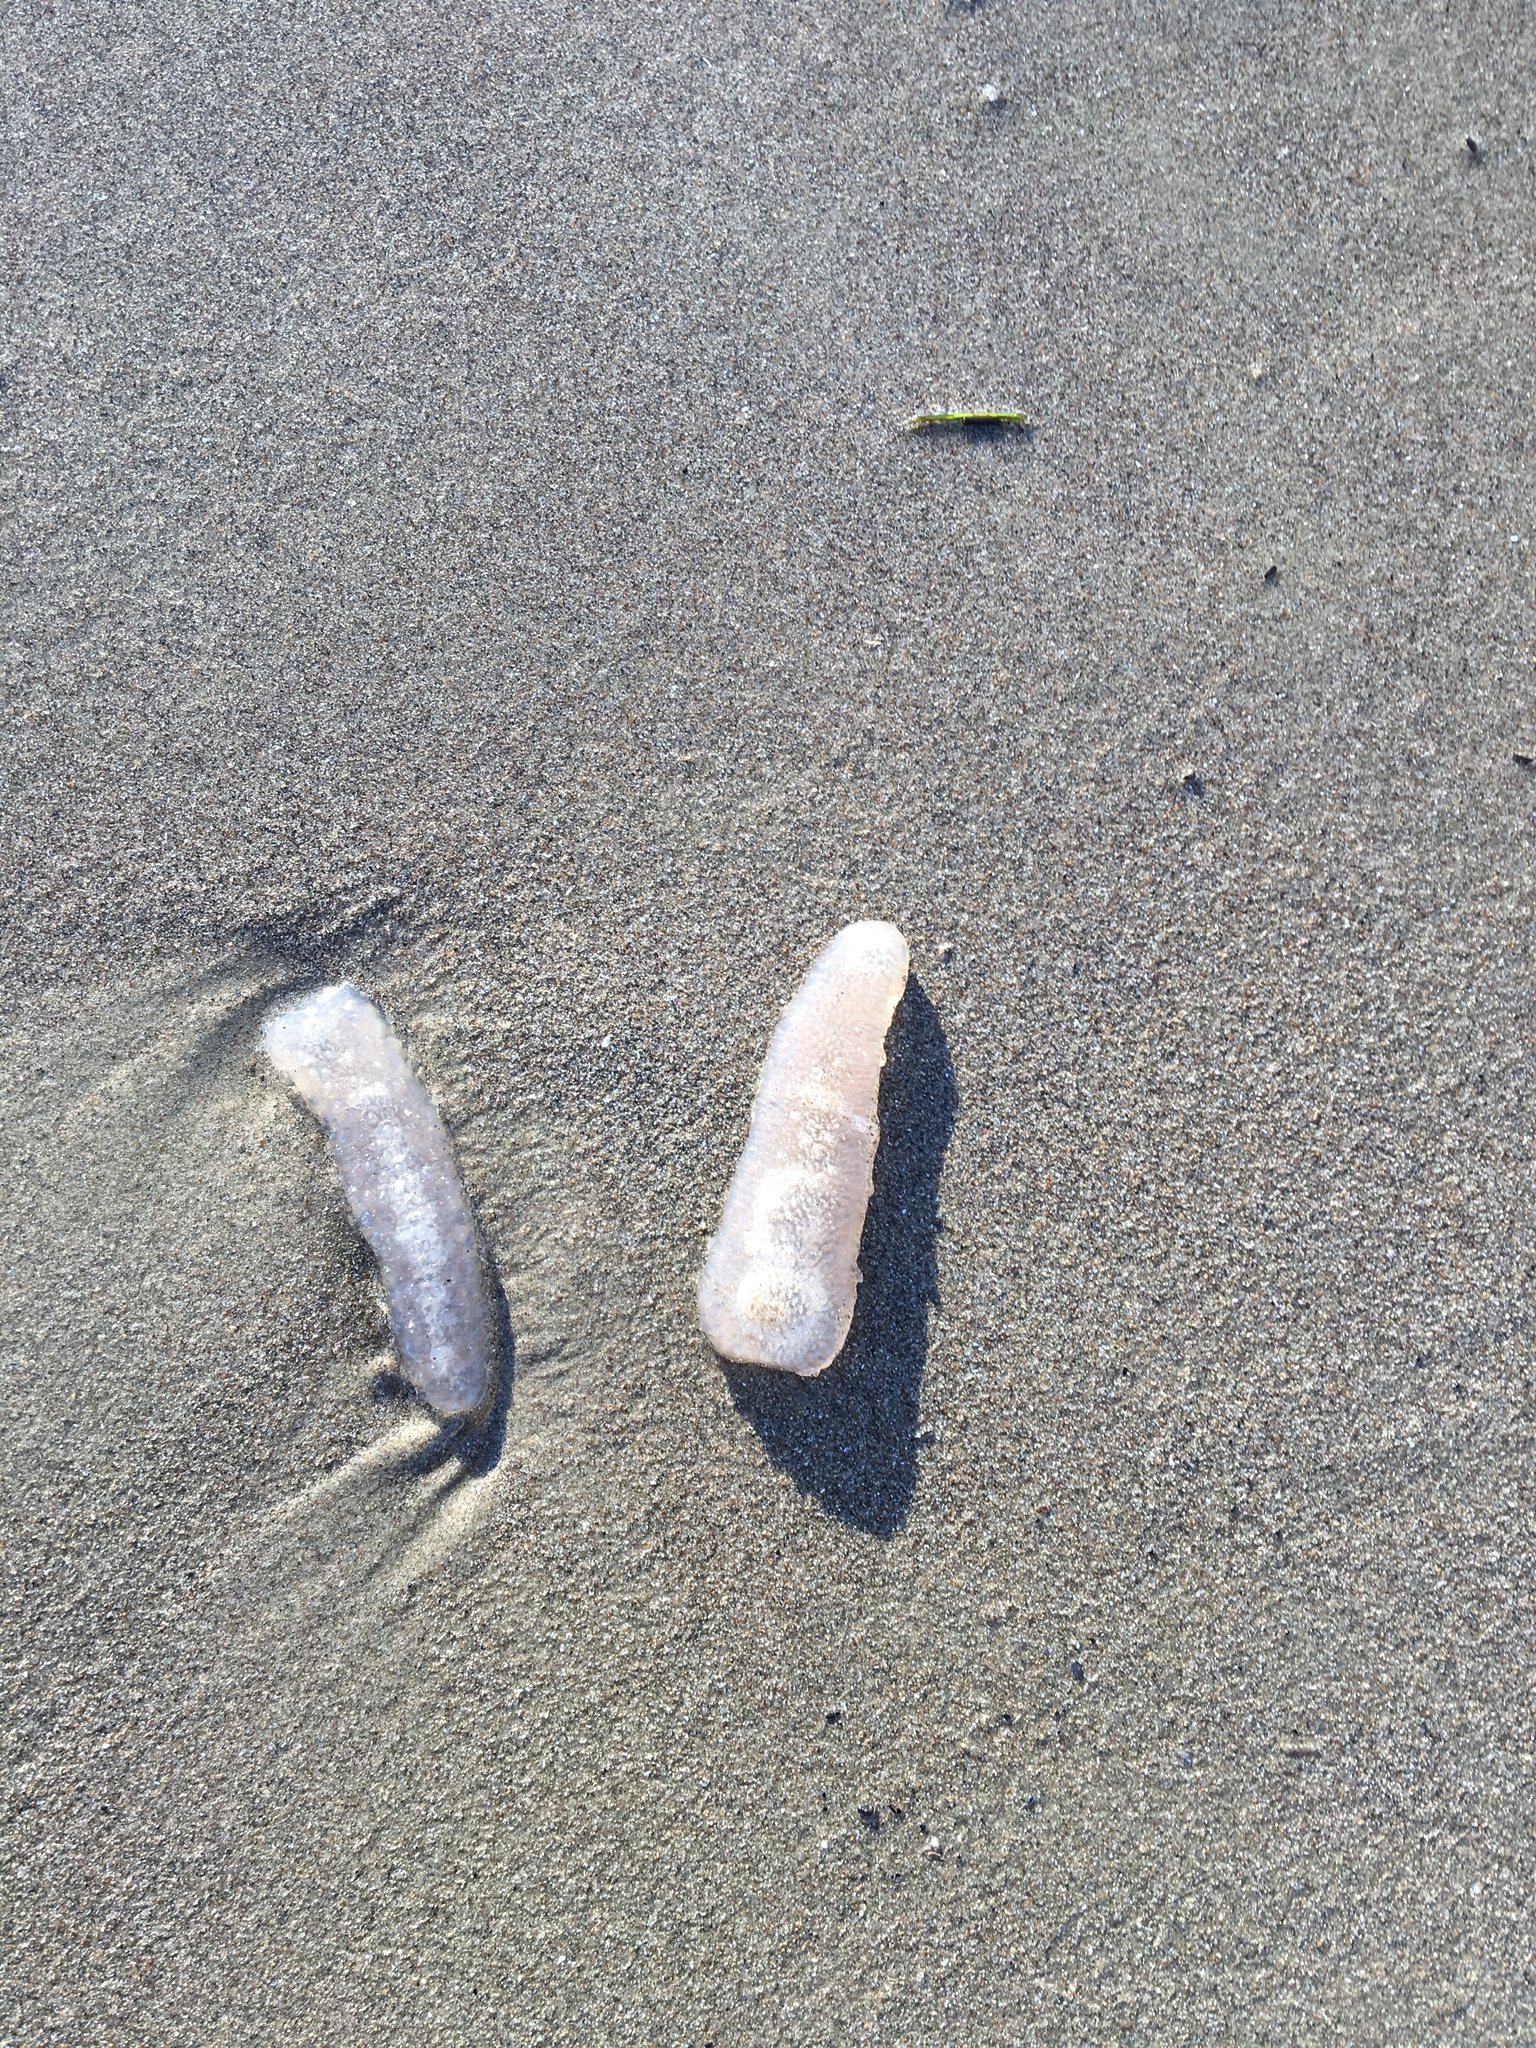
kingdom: Animalia
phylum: Chordata
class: Thaliacea
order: Pyrosomatida
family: Pyrosomatidae
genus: Pyrosoma
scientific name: Pyrosoma atlanticum
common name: Atlantic pyrosomes
